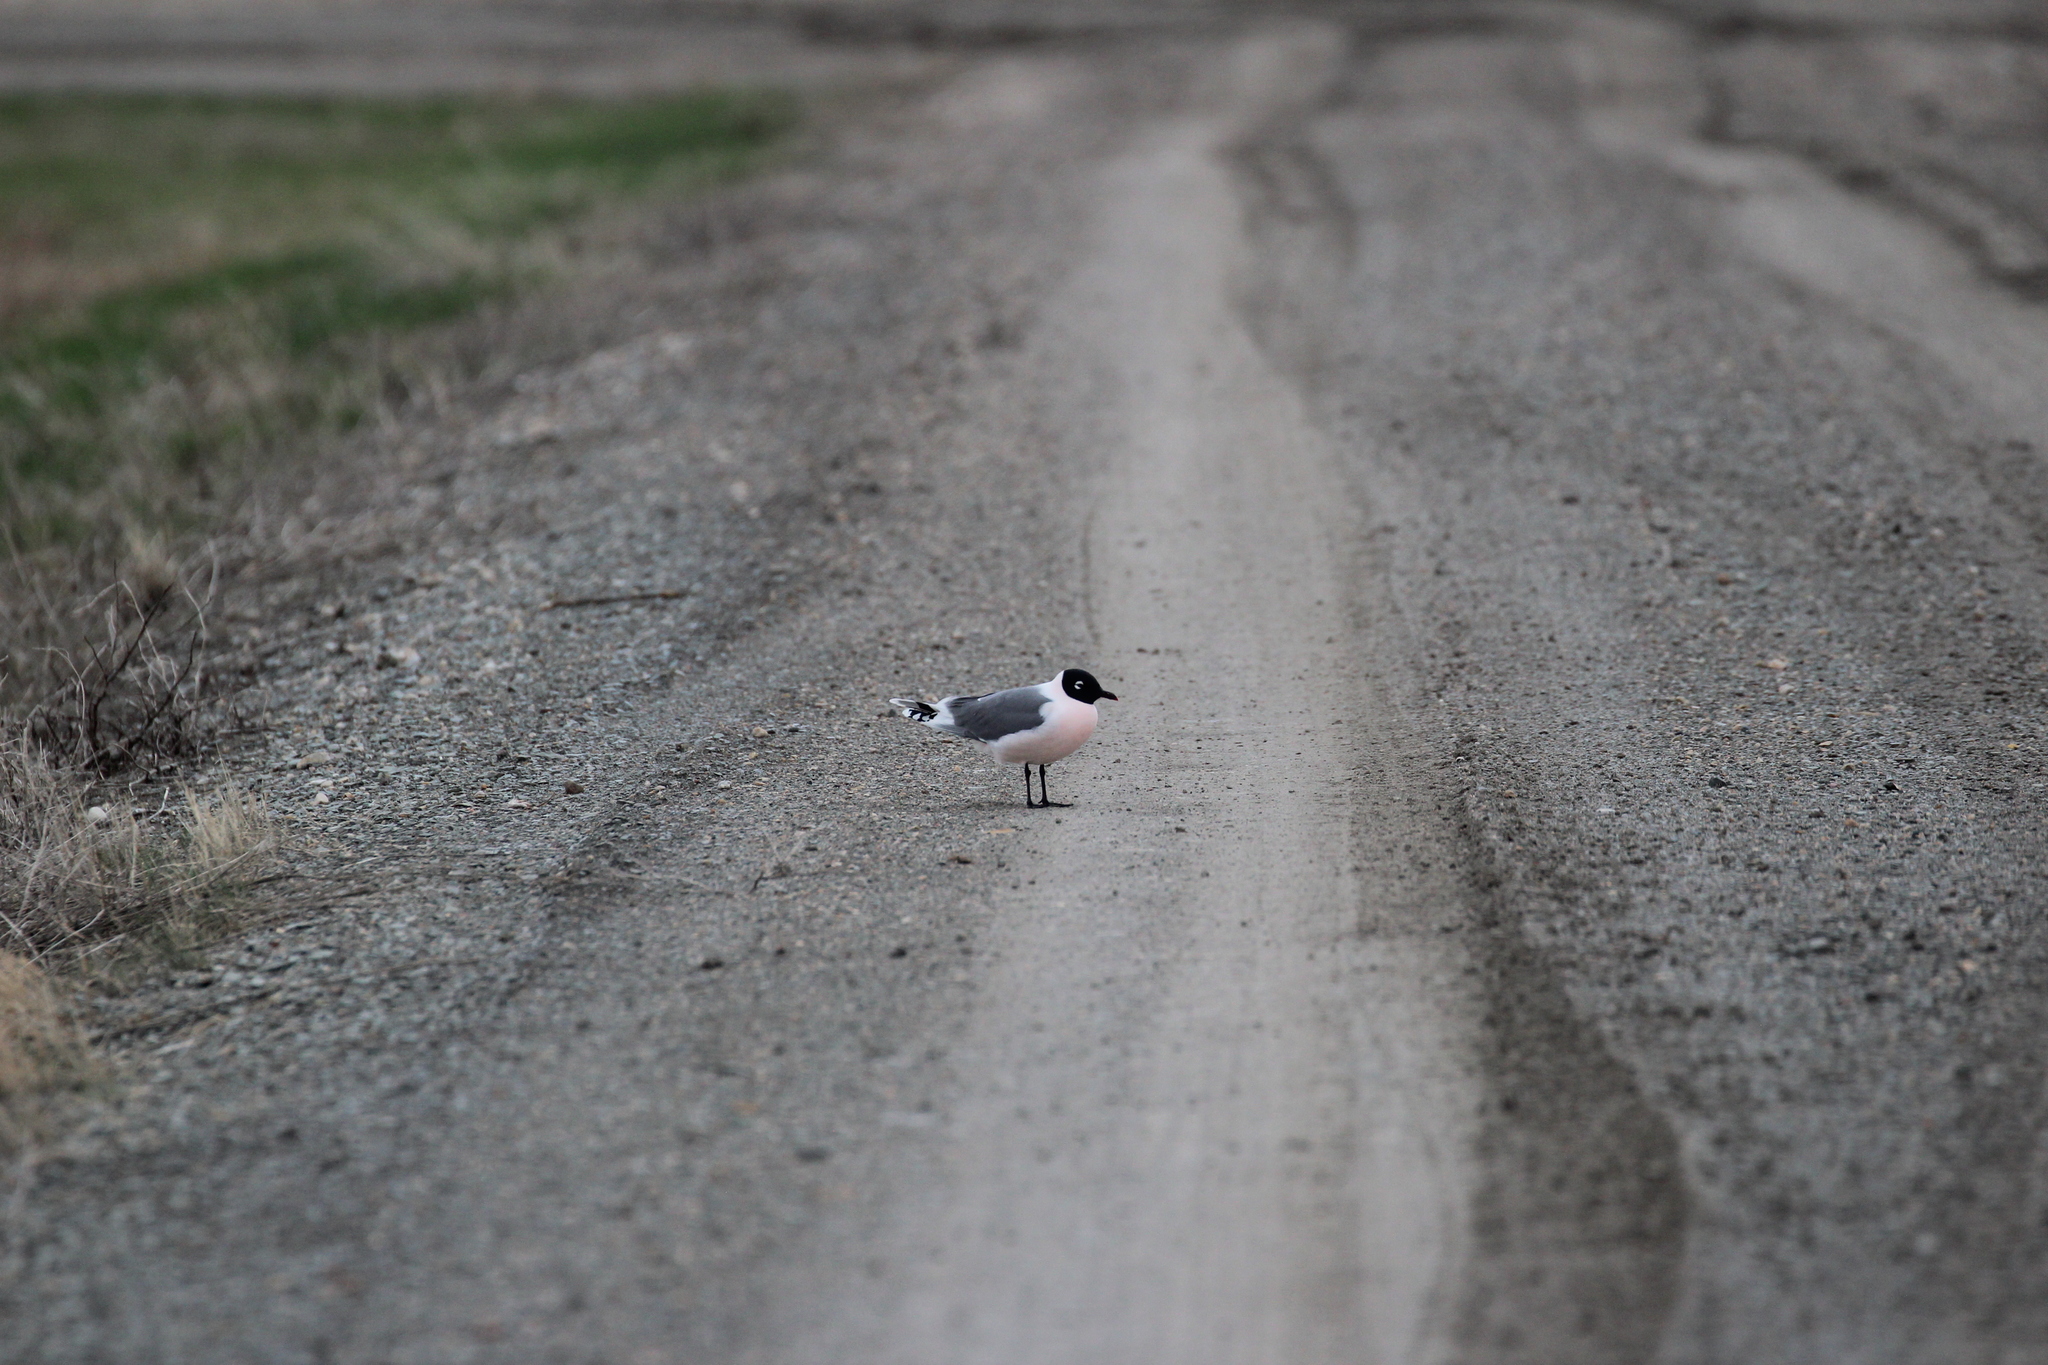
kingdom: Animalia
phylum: Chordata
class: Aves
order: Charadriiformes
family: Laridae
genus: Leucophaeus
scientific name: Leucophaeus pipixcan
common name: Franklin's gull
